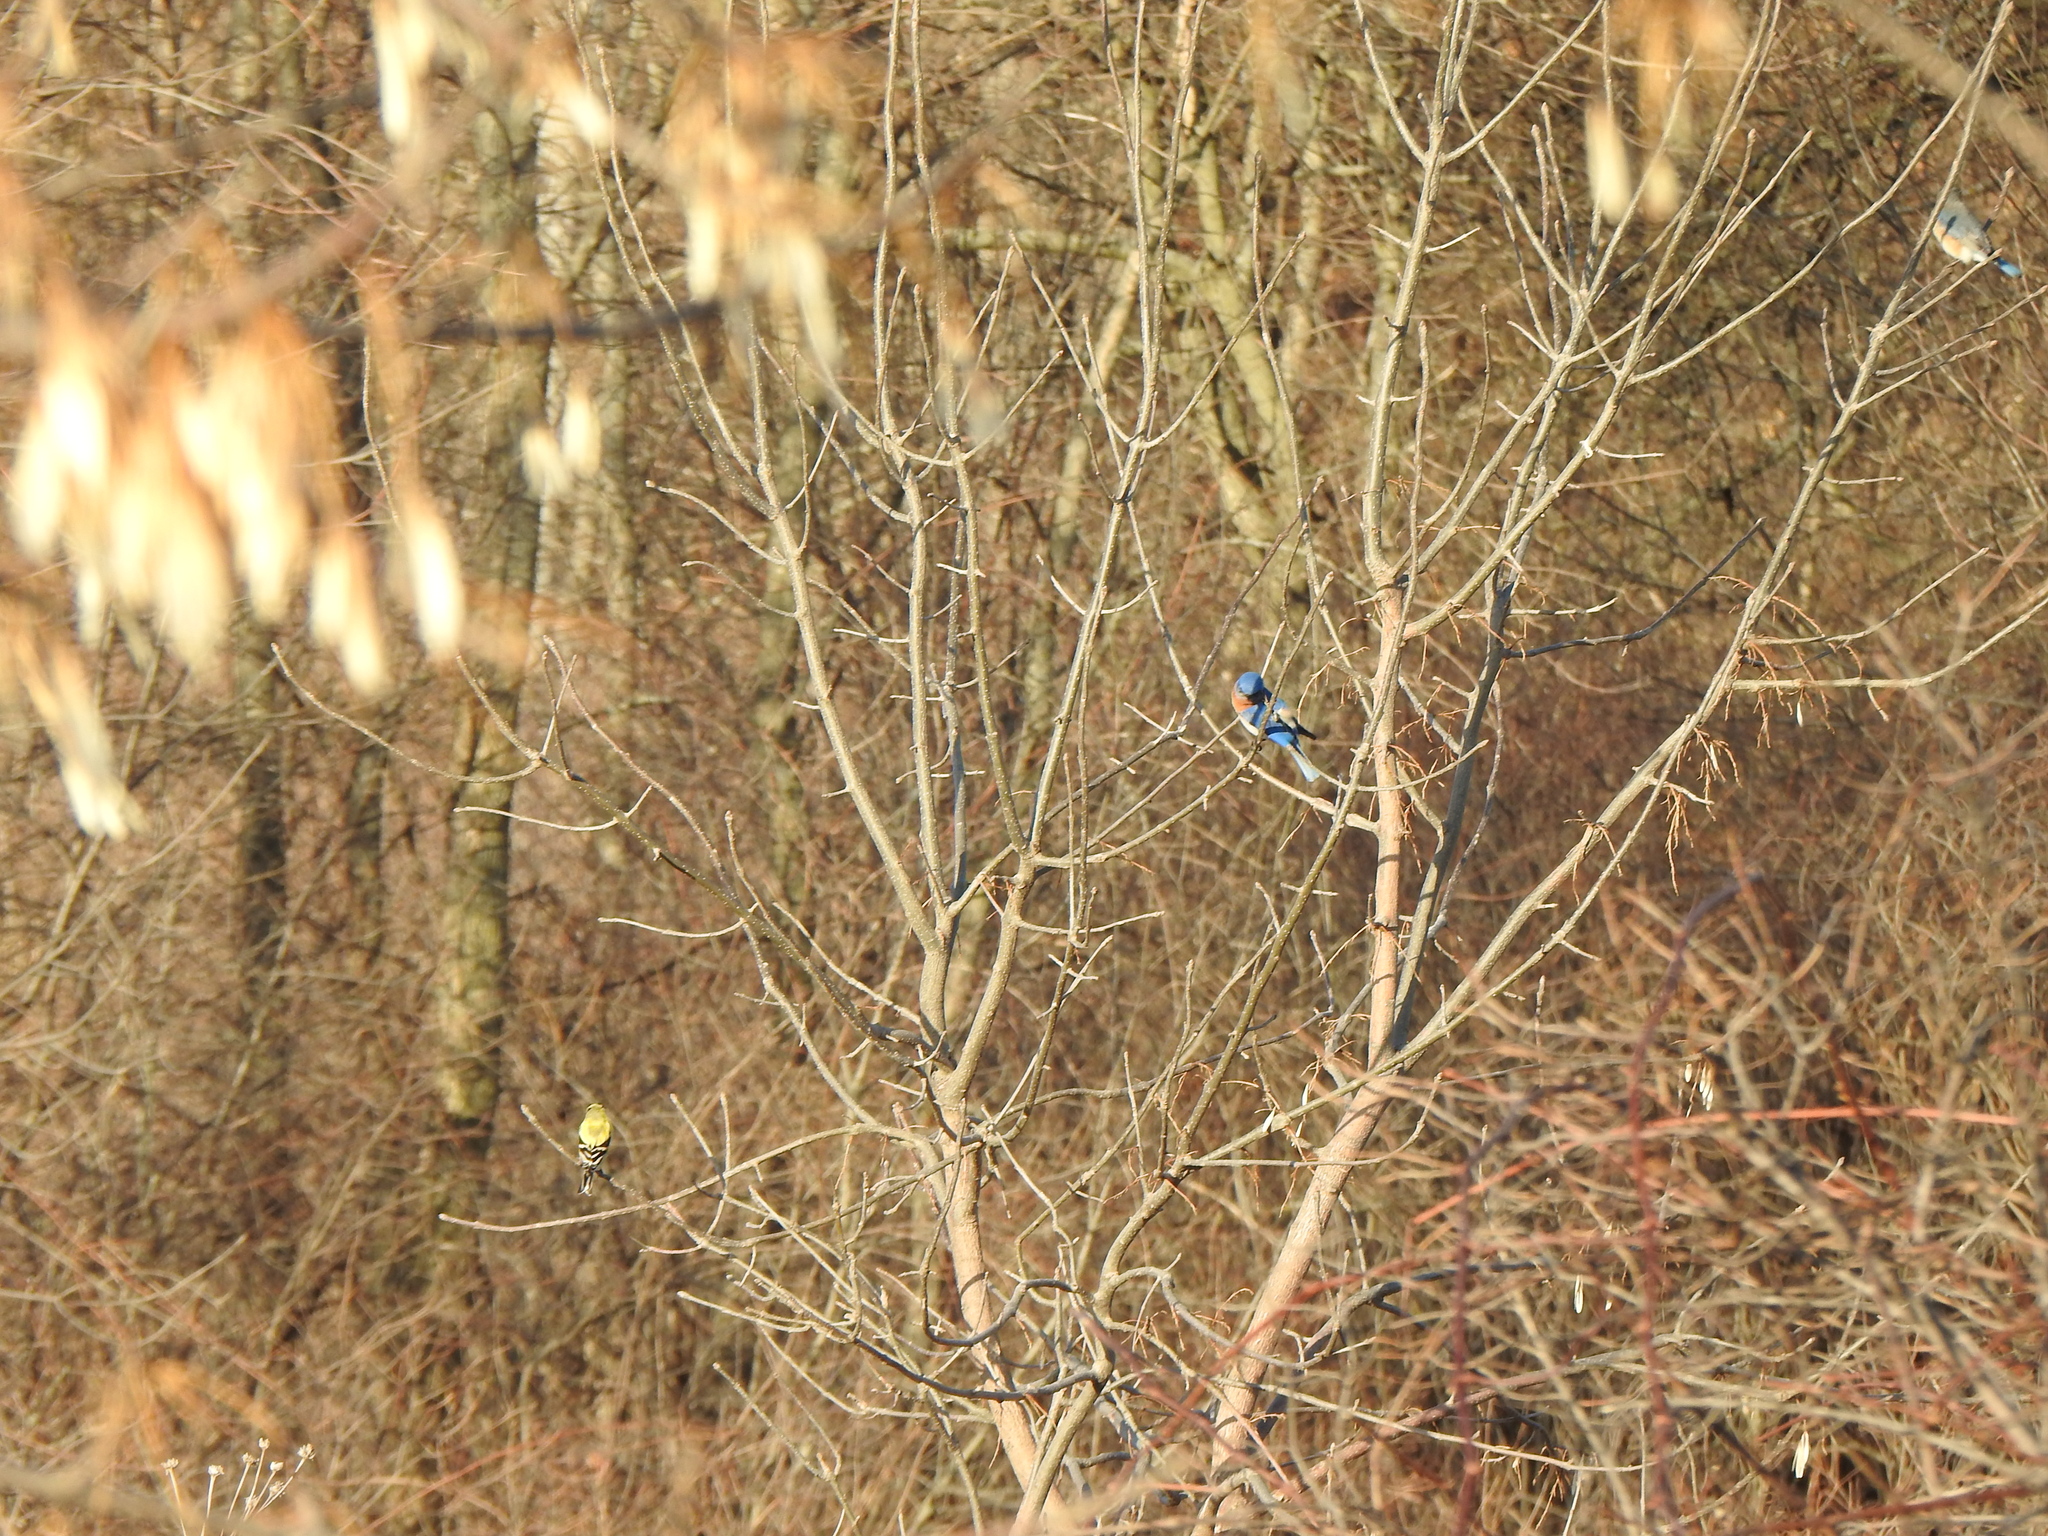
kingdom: Animalia
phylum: Chordata
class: Aves
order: Passeriformes
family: Turdidae
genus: Sialia
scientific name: Sialia sialis
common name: Eastern bluebird
